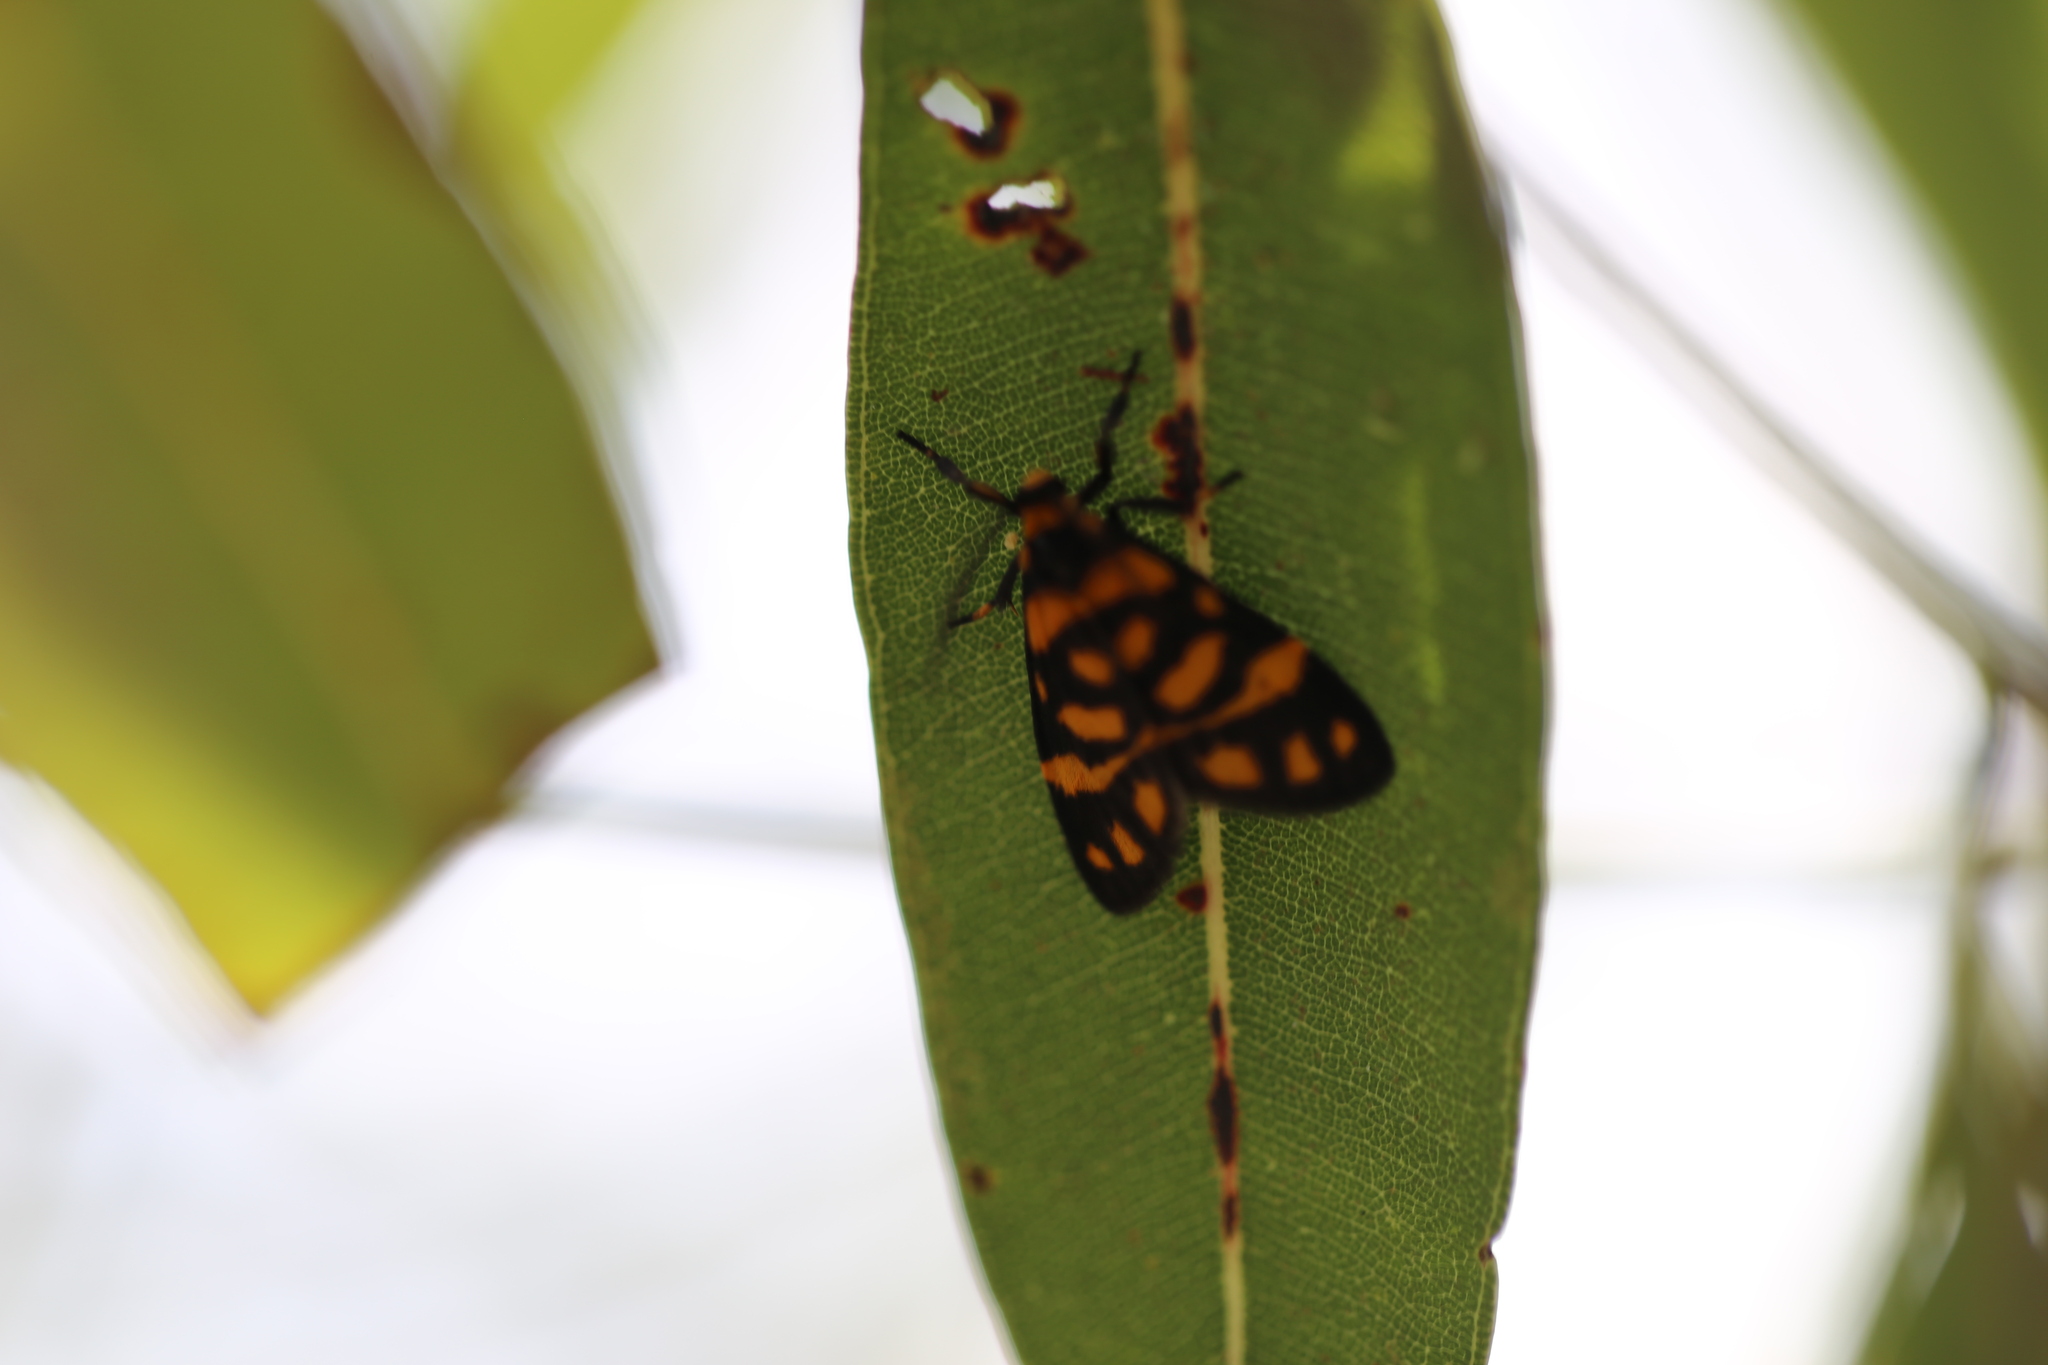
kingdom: Animalia
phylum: Arthropoda
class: Insecta
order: Lepidoptera
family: Erebidae
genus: Asura
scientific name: Asura lydia
